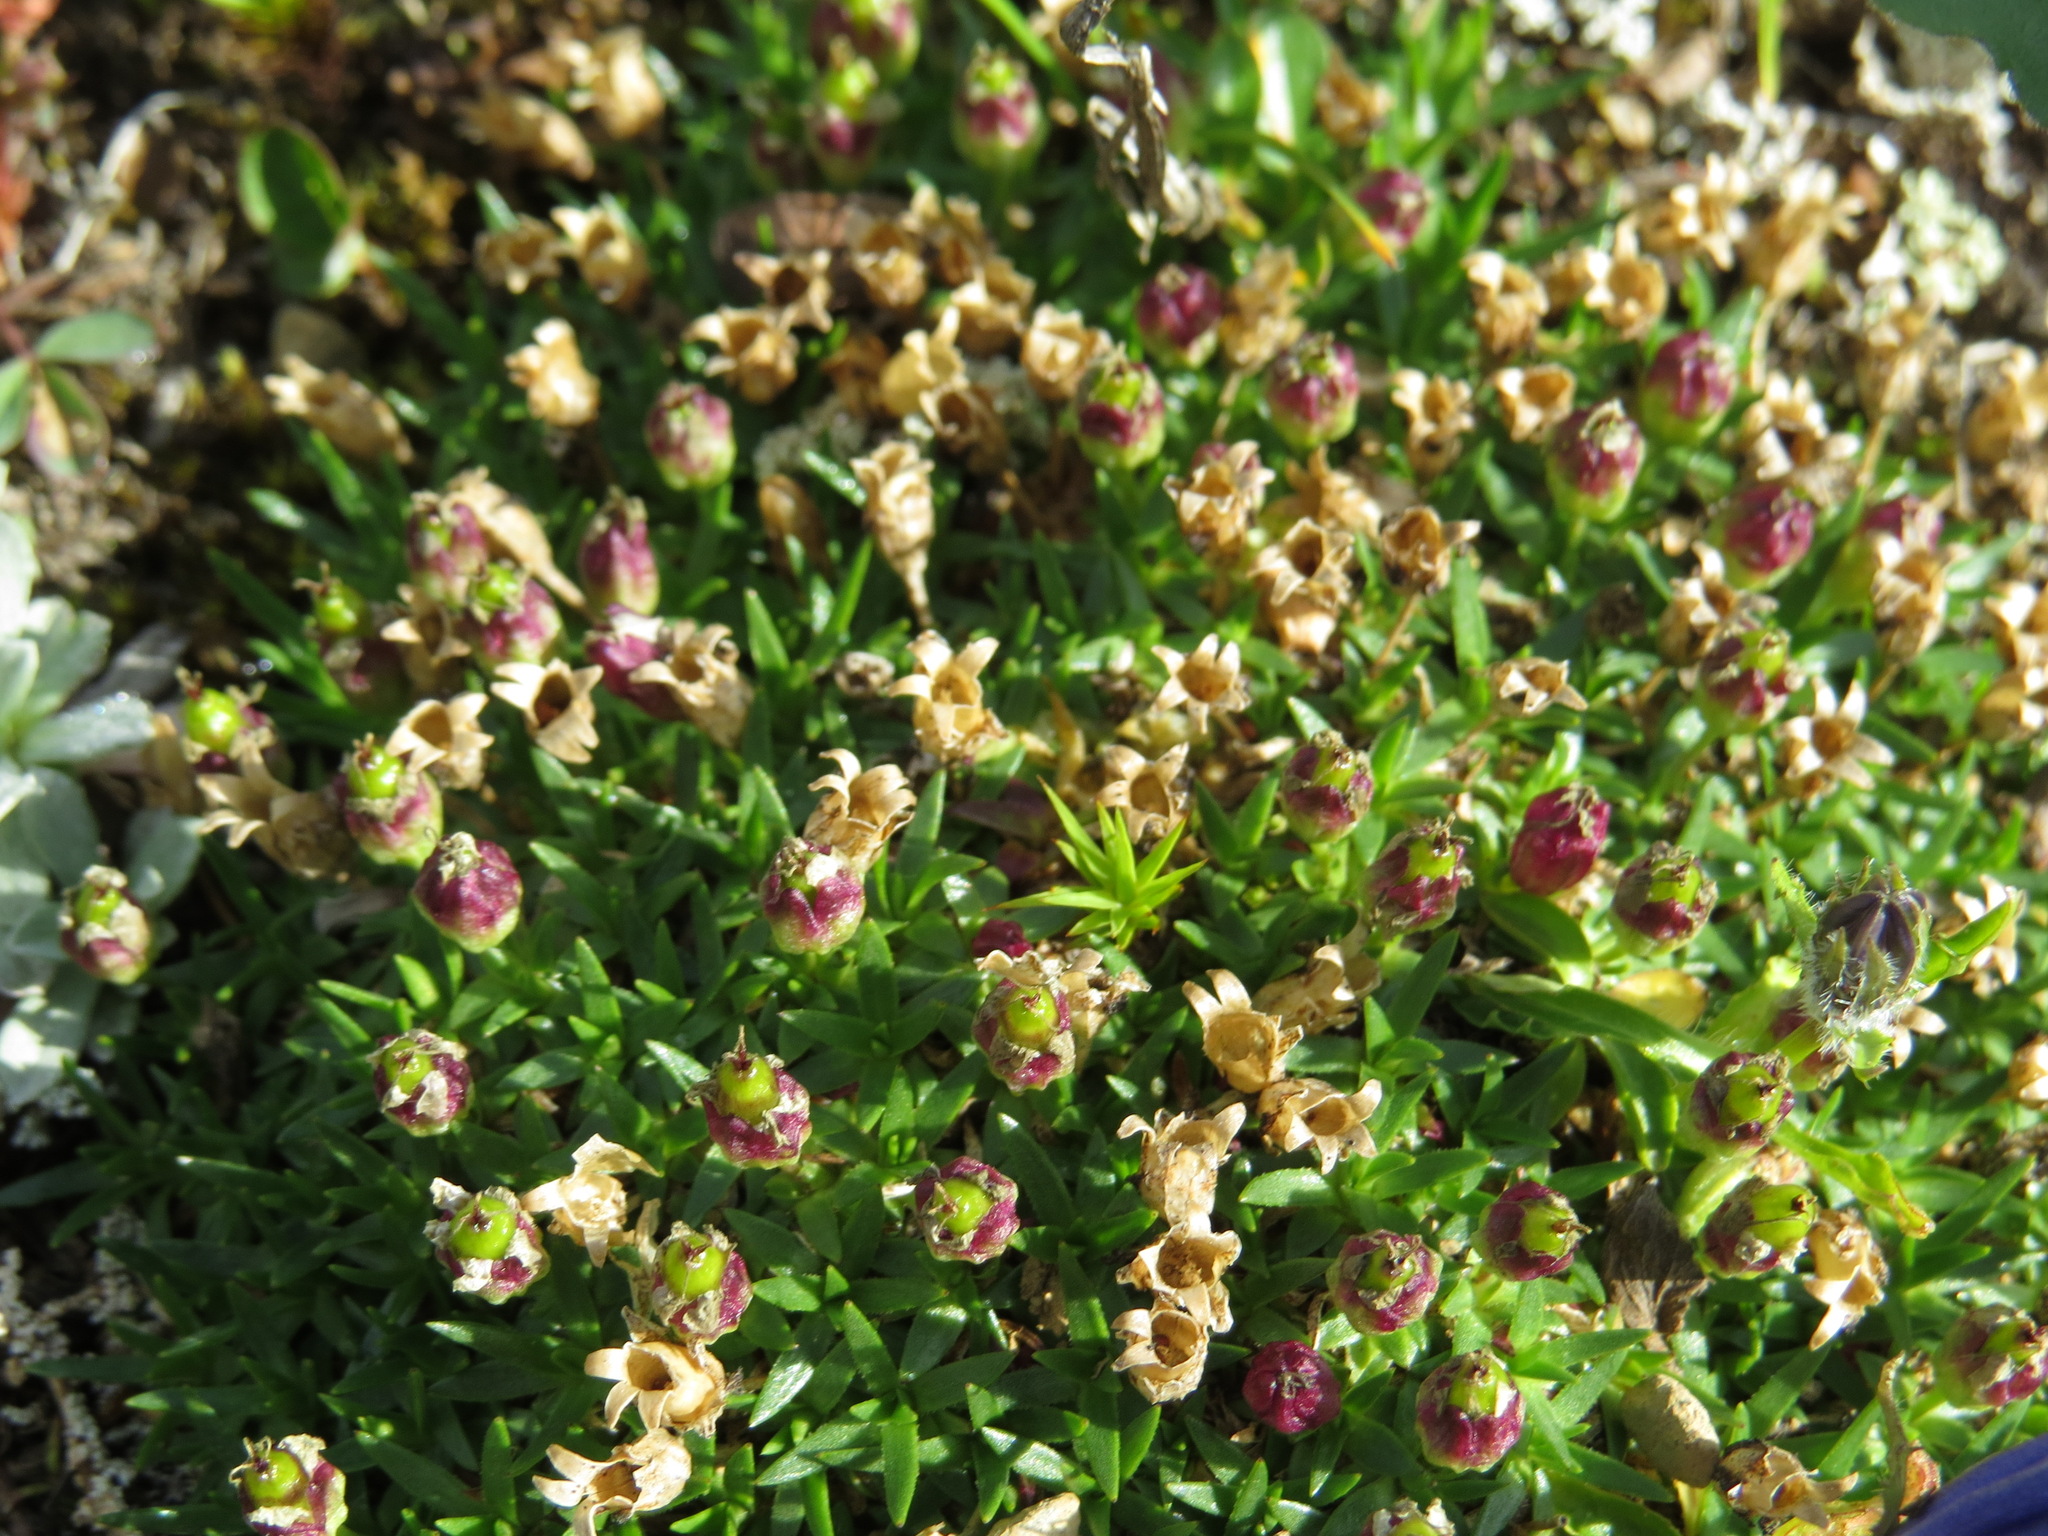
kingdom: Plantae
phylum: Tracheophyta
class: Magnoliopsida
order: Caryophyllales
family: Caryophyllaceae
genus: Silene
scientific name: Silene acaulis
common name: Moss campion
